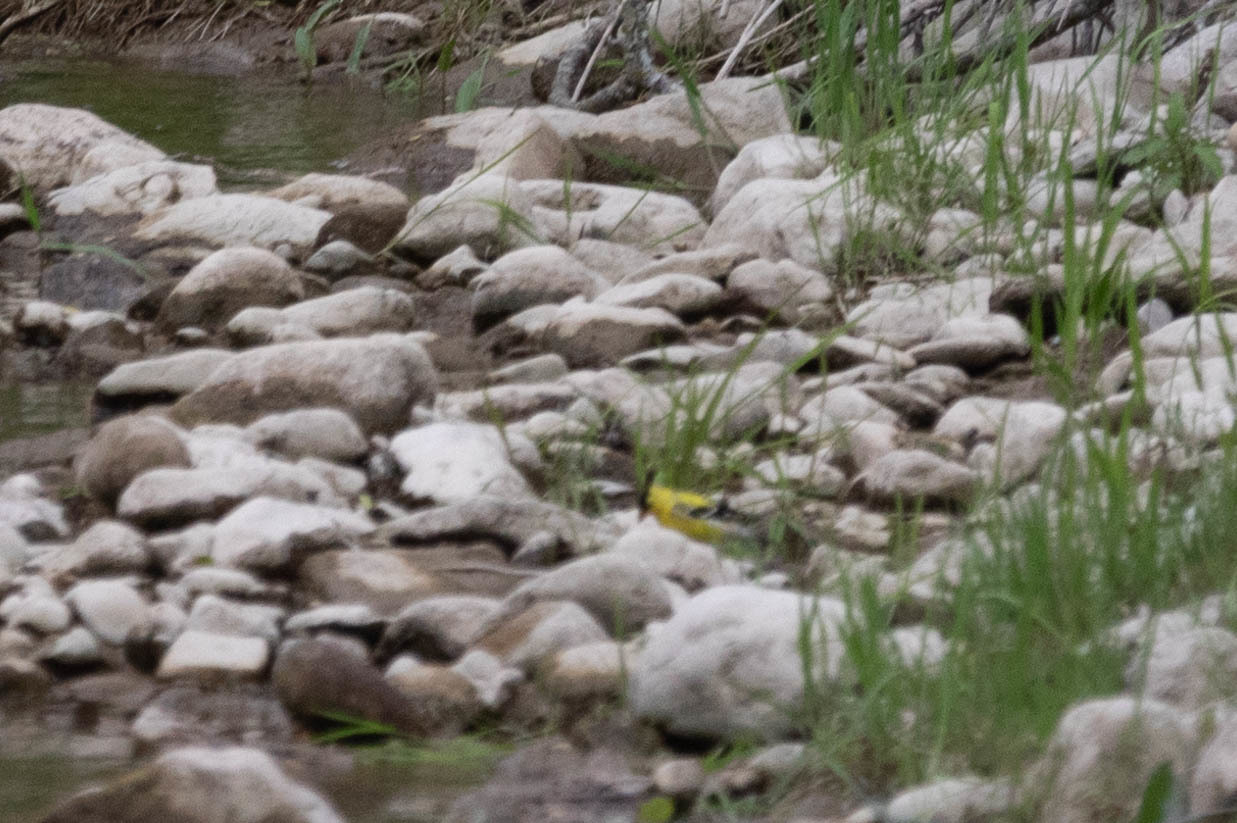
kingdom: Animalia
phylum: Chordata
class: Aves
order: Passeriformes
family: Fringillidae
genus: Spinus
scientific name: Spinus tristis
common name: American goldfinch
